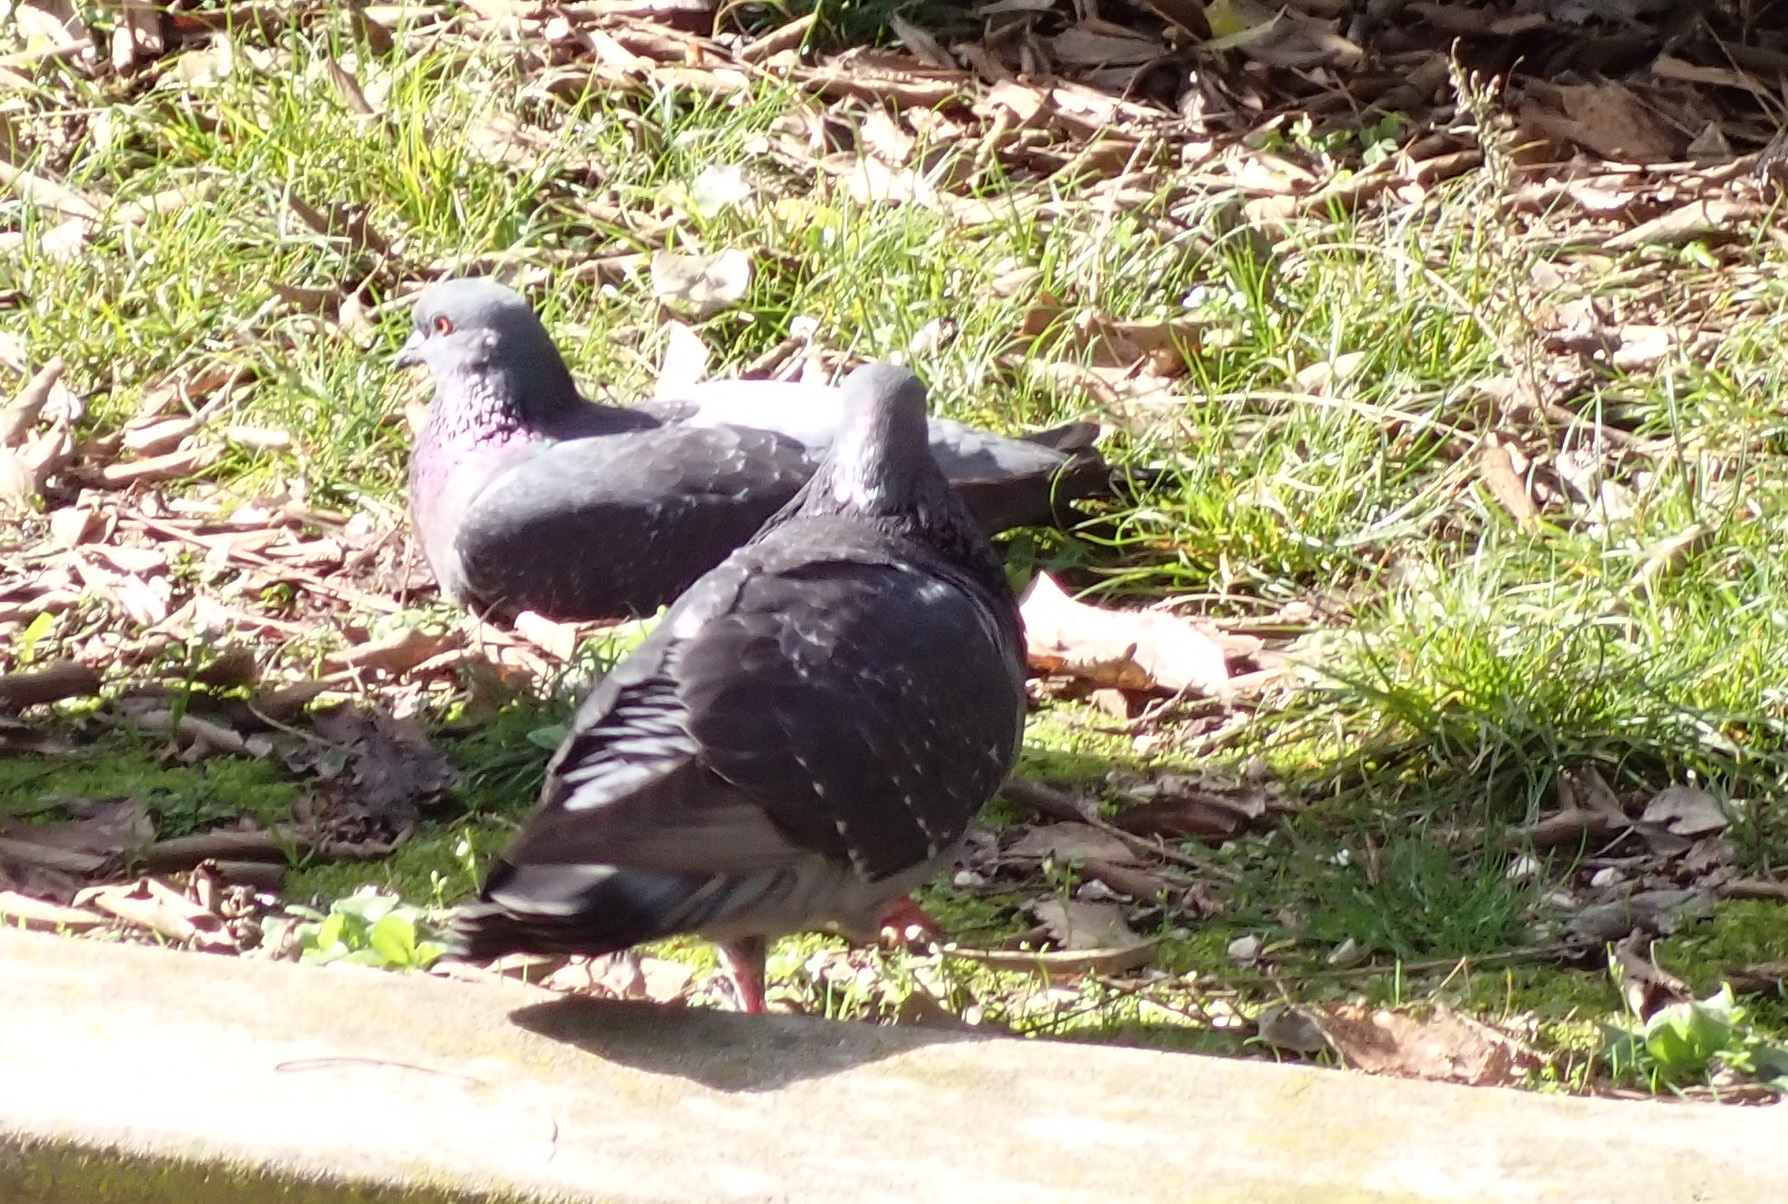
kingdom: Animalia
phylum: Chordata
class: Aves
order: Columbiformes
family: Columbidae
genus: Columba
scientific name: Columba livia
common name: Rock pigeon
